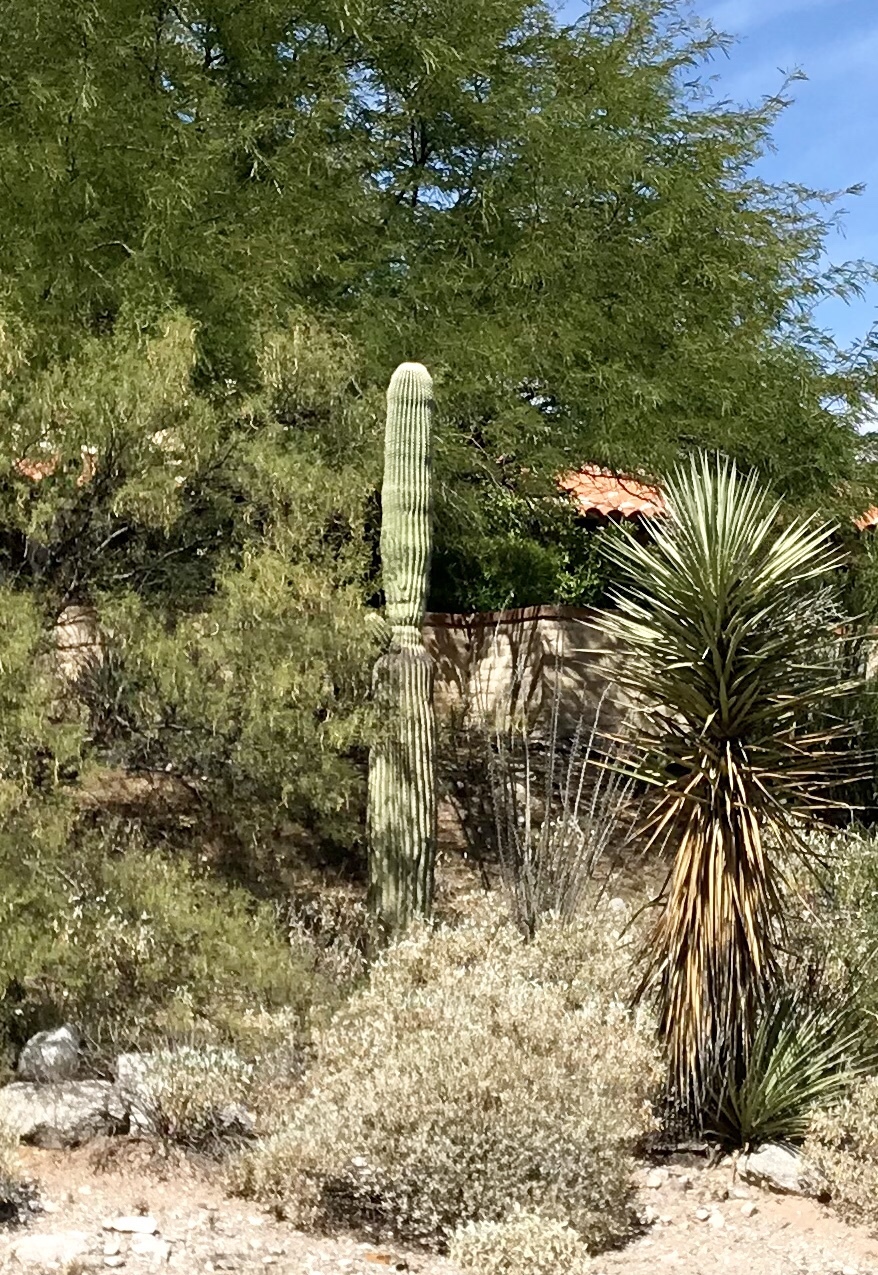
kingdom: Plantae
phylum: Tracheophyta
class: Magnoliopsida
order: Caryophyllales
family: Cactaceae
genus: Carnegiea
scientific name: Carnegiea gigantea
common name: Saguaro
